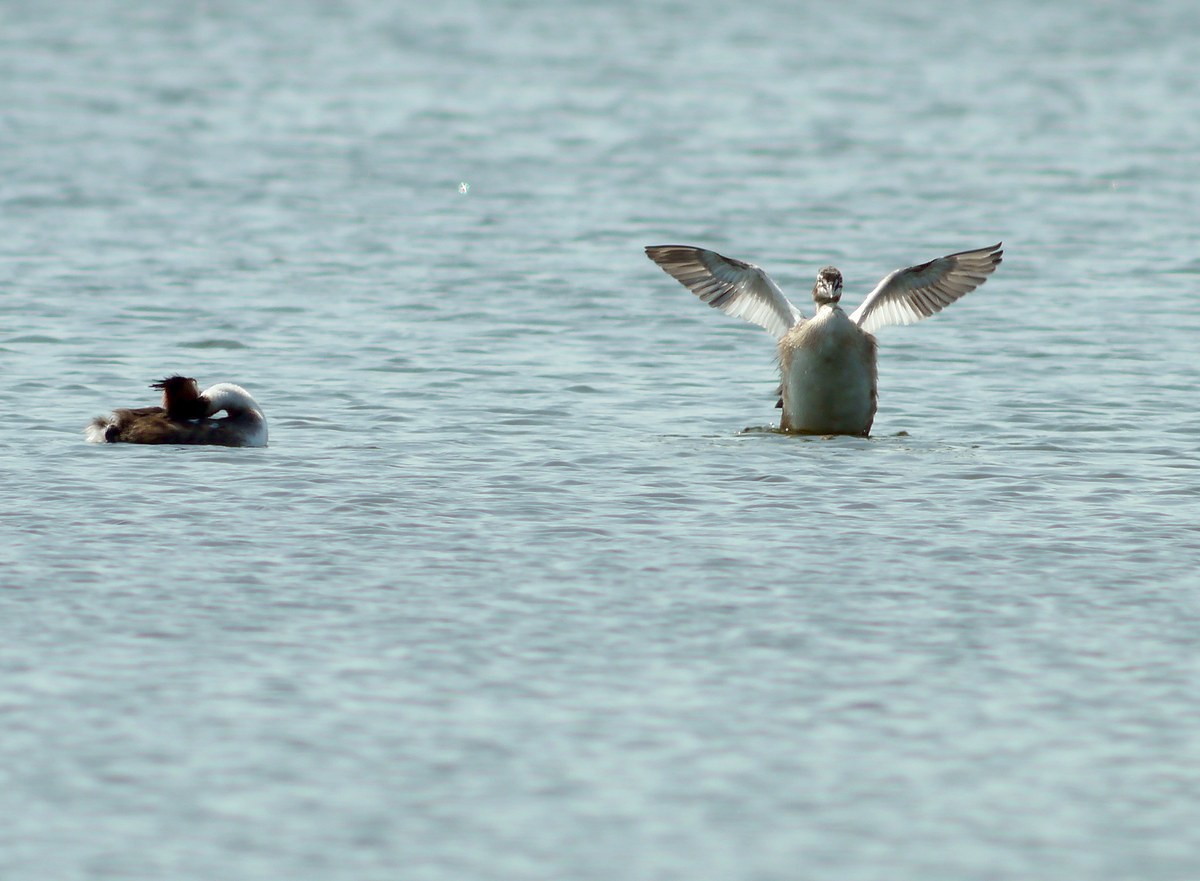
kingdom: Animalia
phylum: Chordata
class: Aves
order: Podicipediformes
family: Podicipedidae
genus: Podiceps
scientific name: Podiceps cristatus
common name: Great crested grebe
